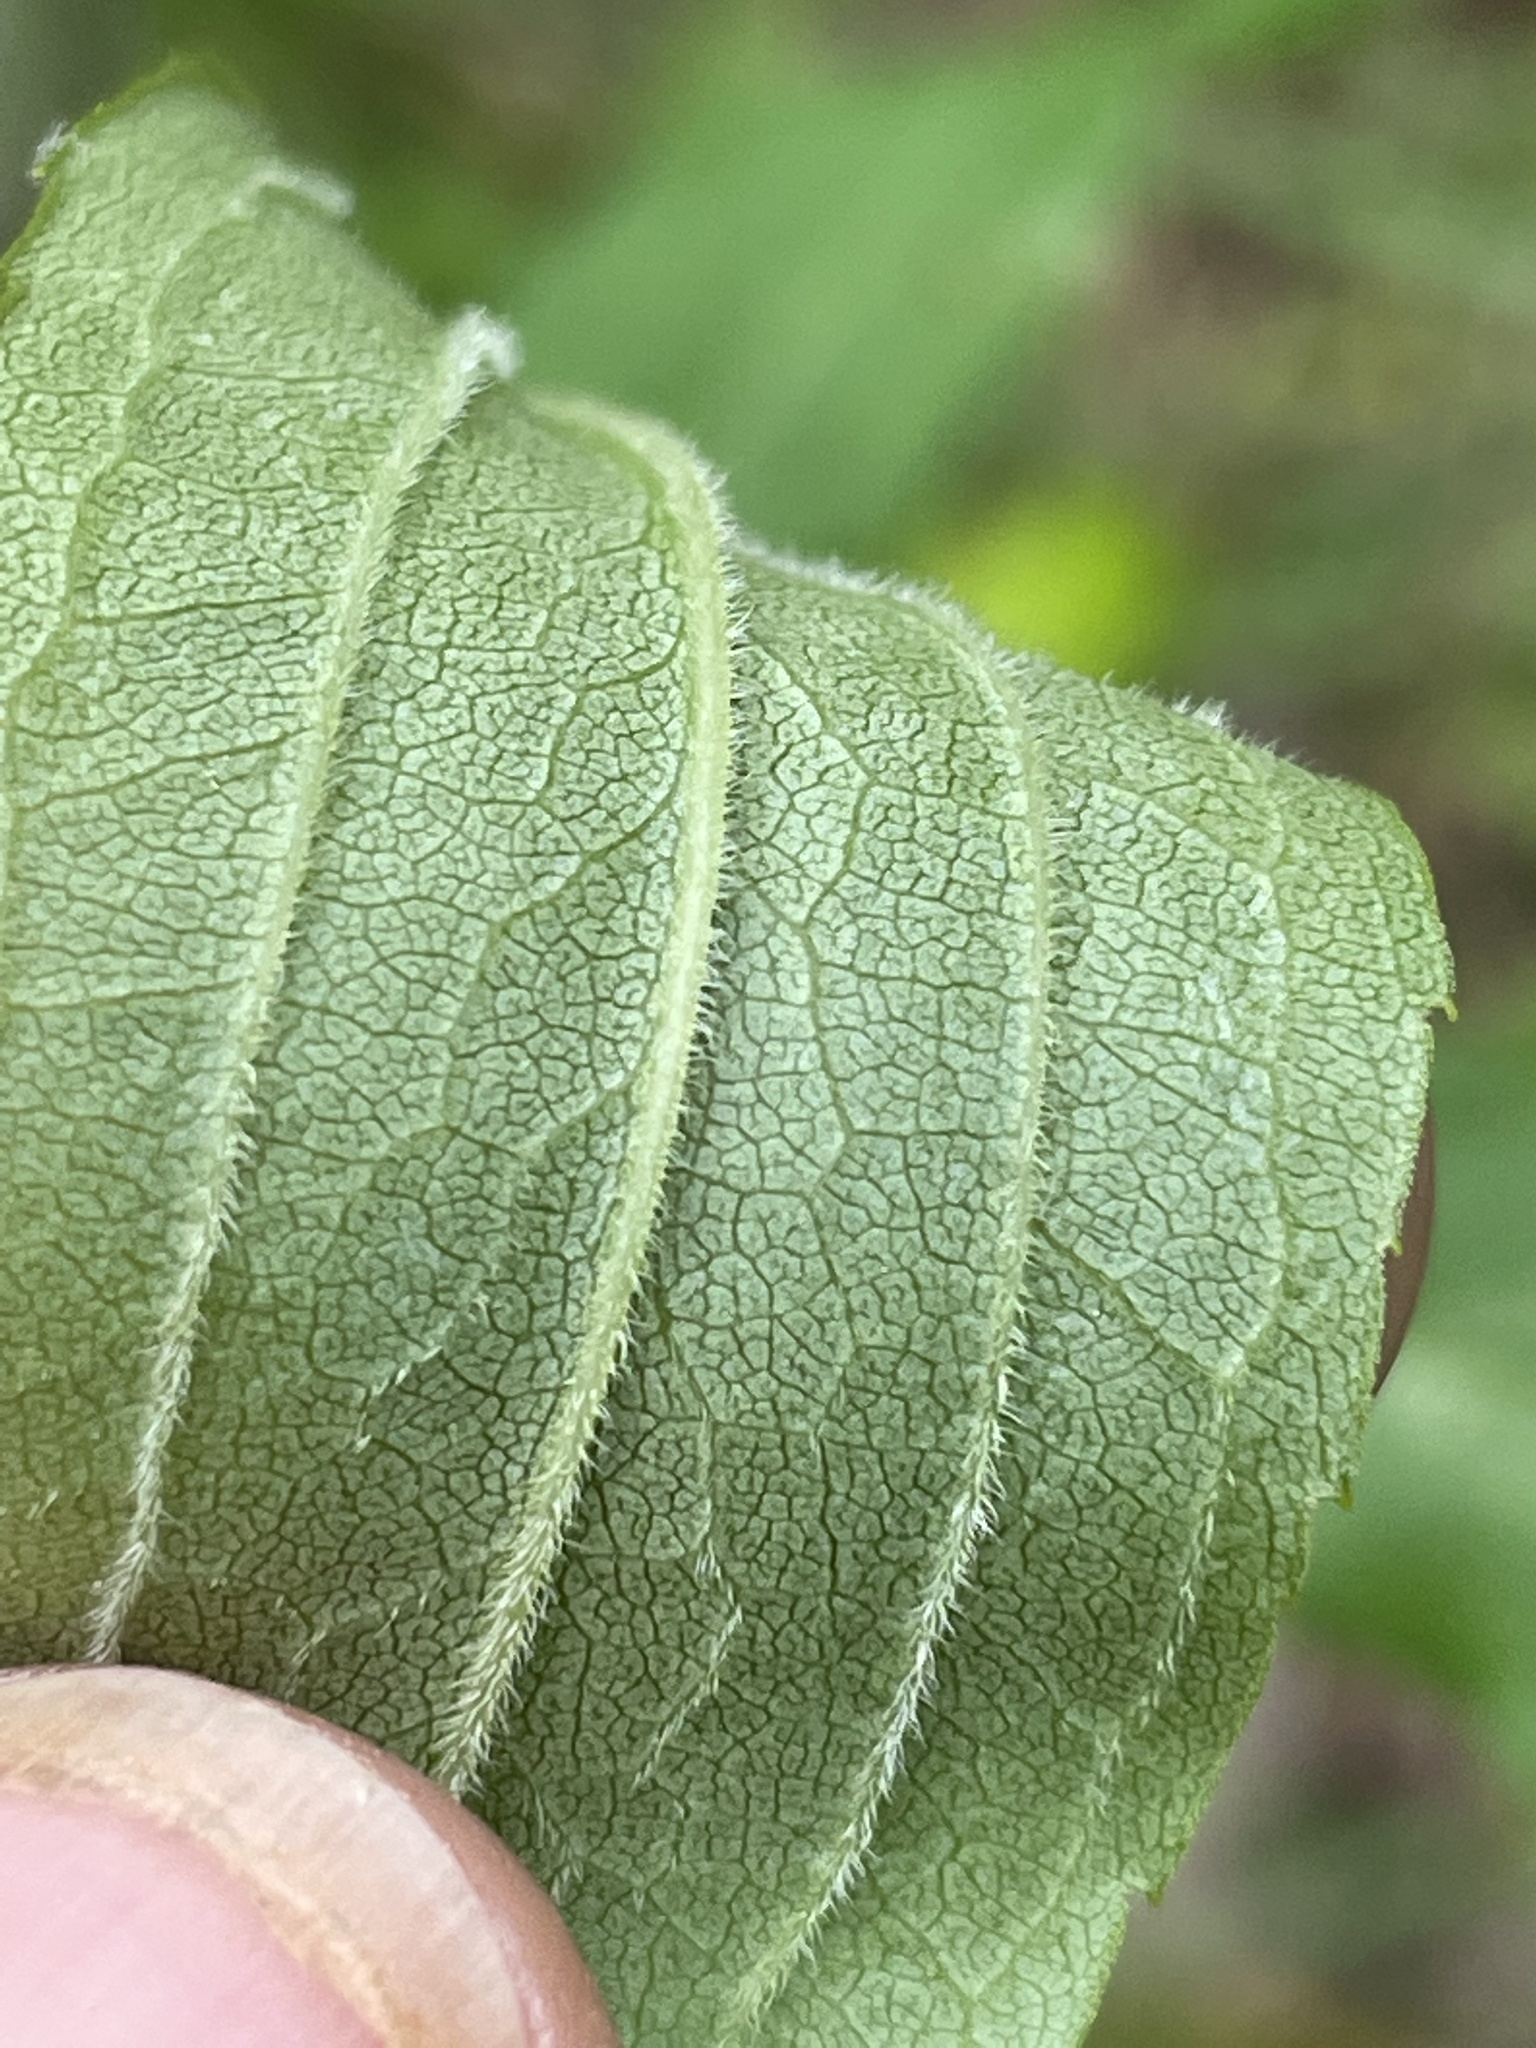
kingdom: Plantae
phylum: Tracheophyta
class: Magnoliopsida
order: Asterales
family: Asteraceae
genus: Solidago
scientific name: Solidago gigantea
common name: Giant goldenrod
